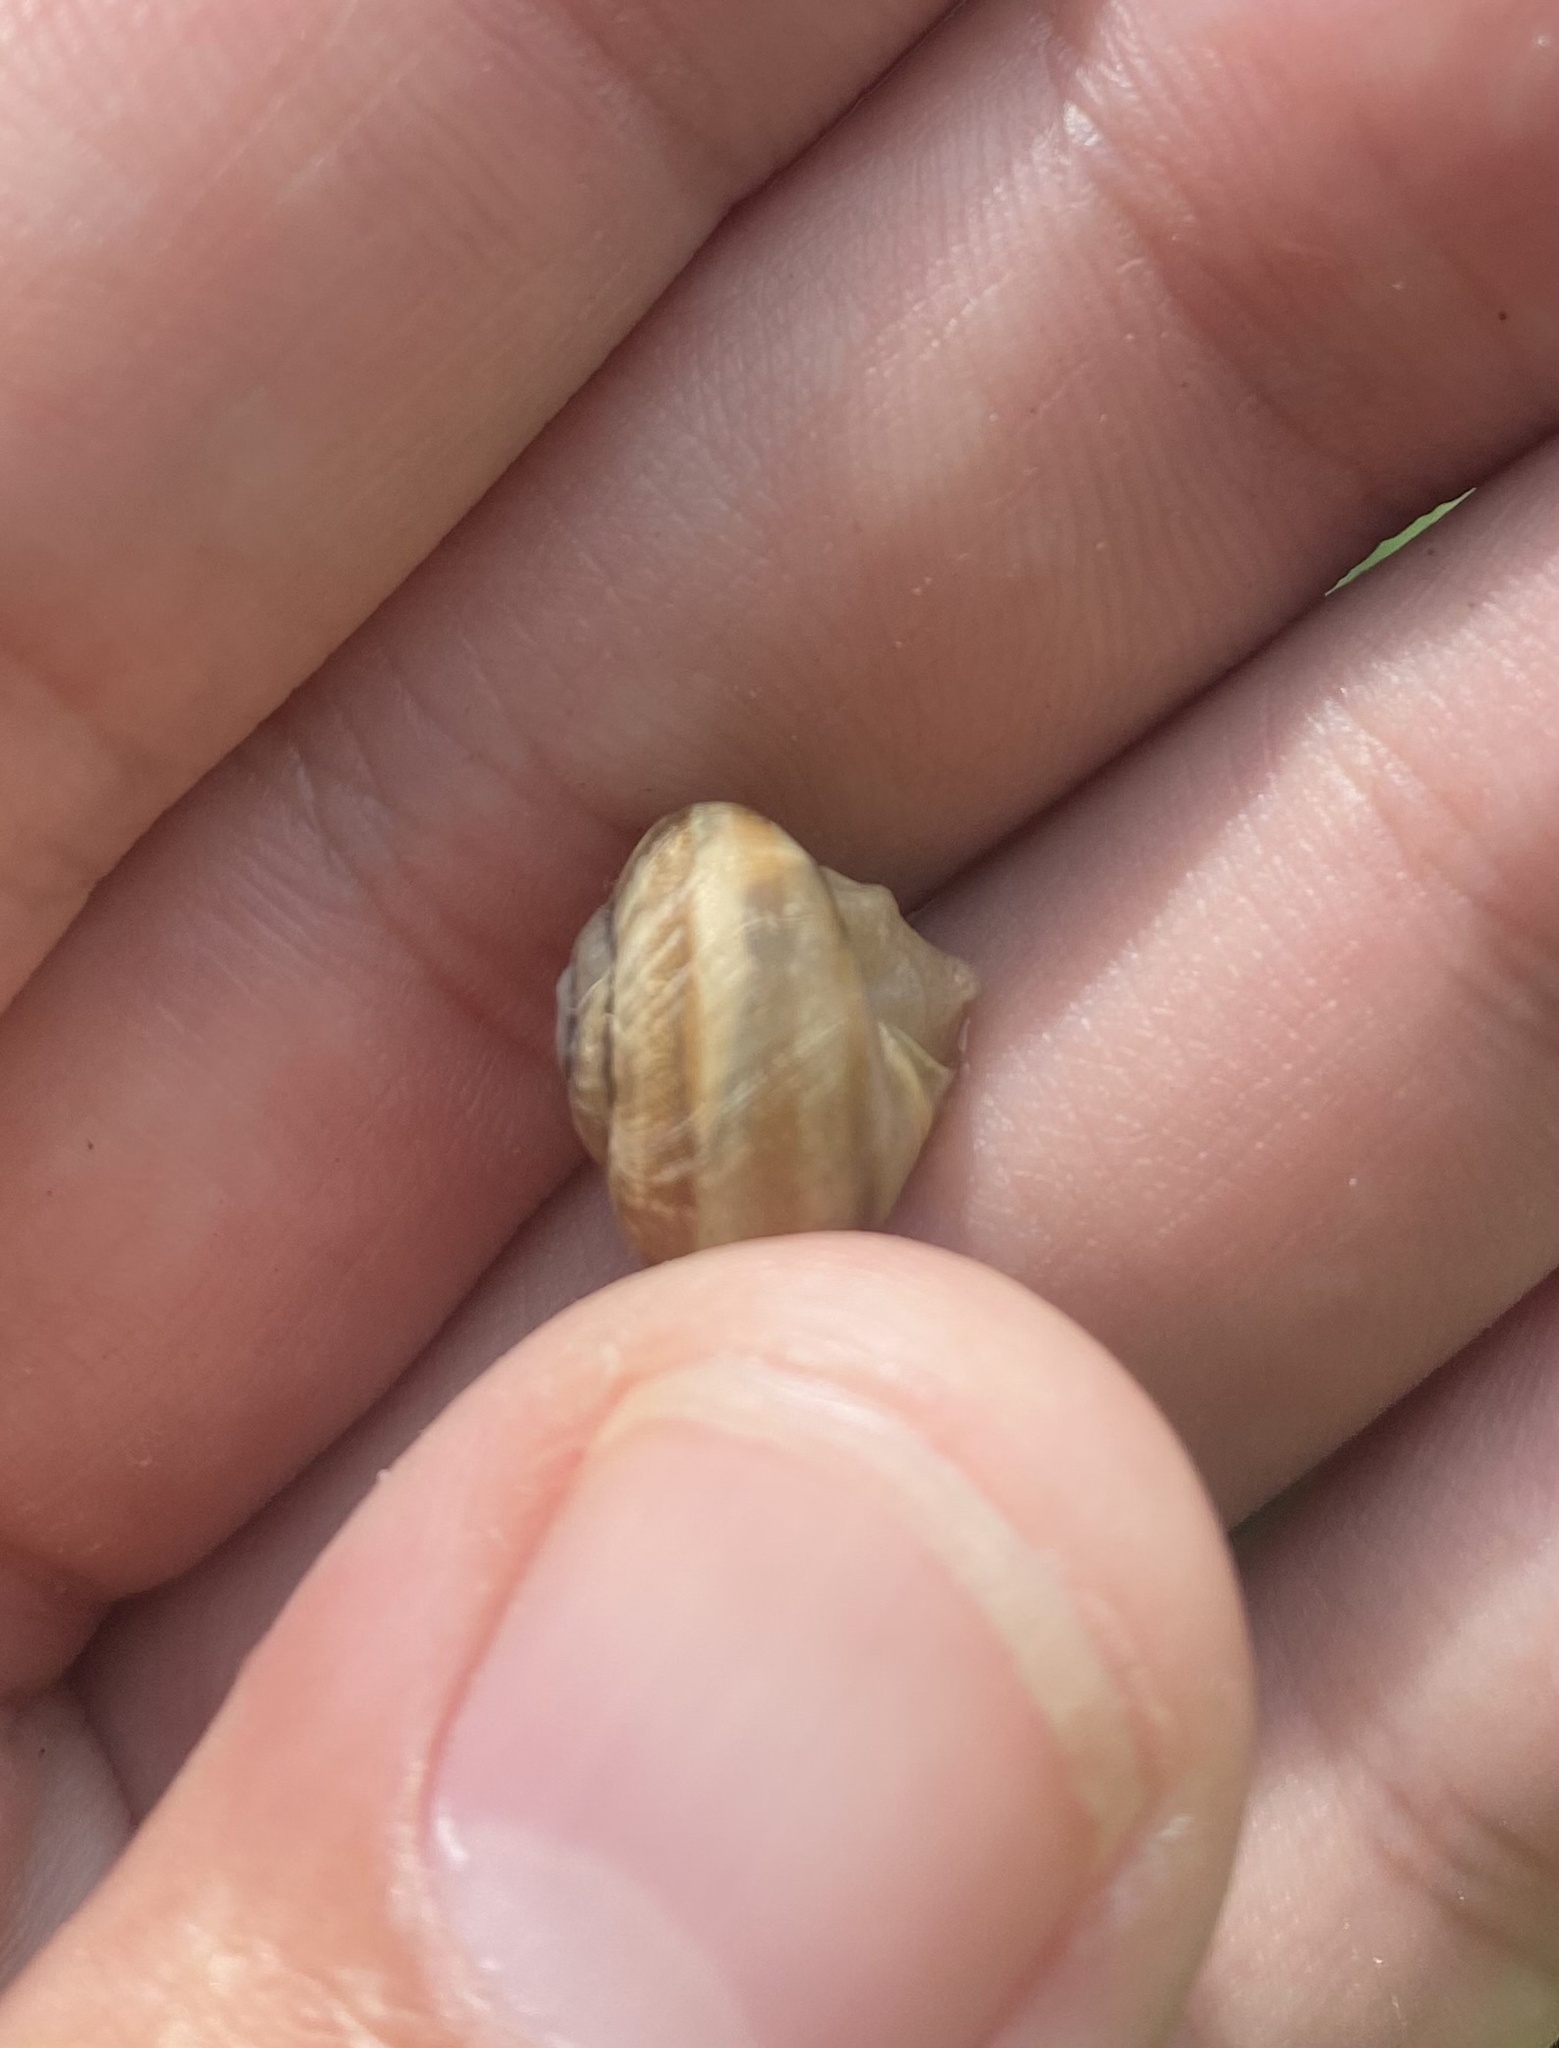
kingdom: Animalia
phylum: Mollusca
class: Gastropoda
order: Stylommatophora
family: Helicidae
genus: Caucasotachea
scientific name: Caucasotachea atrolabiata
